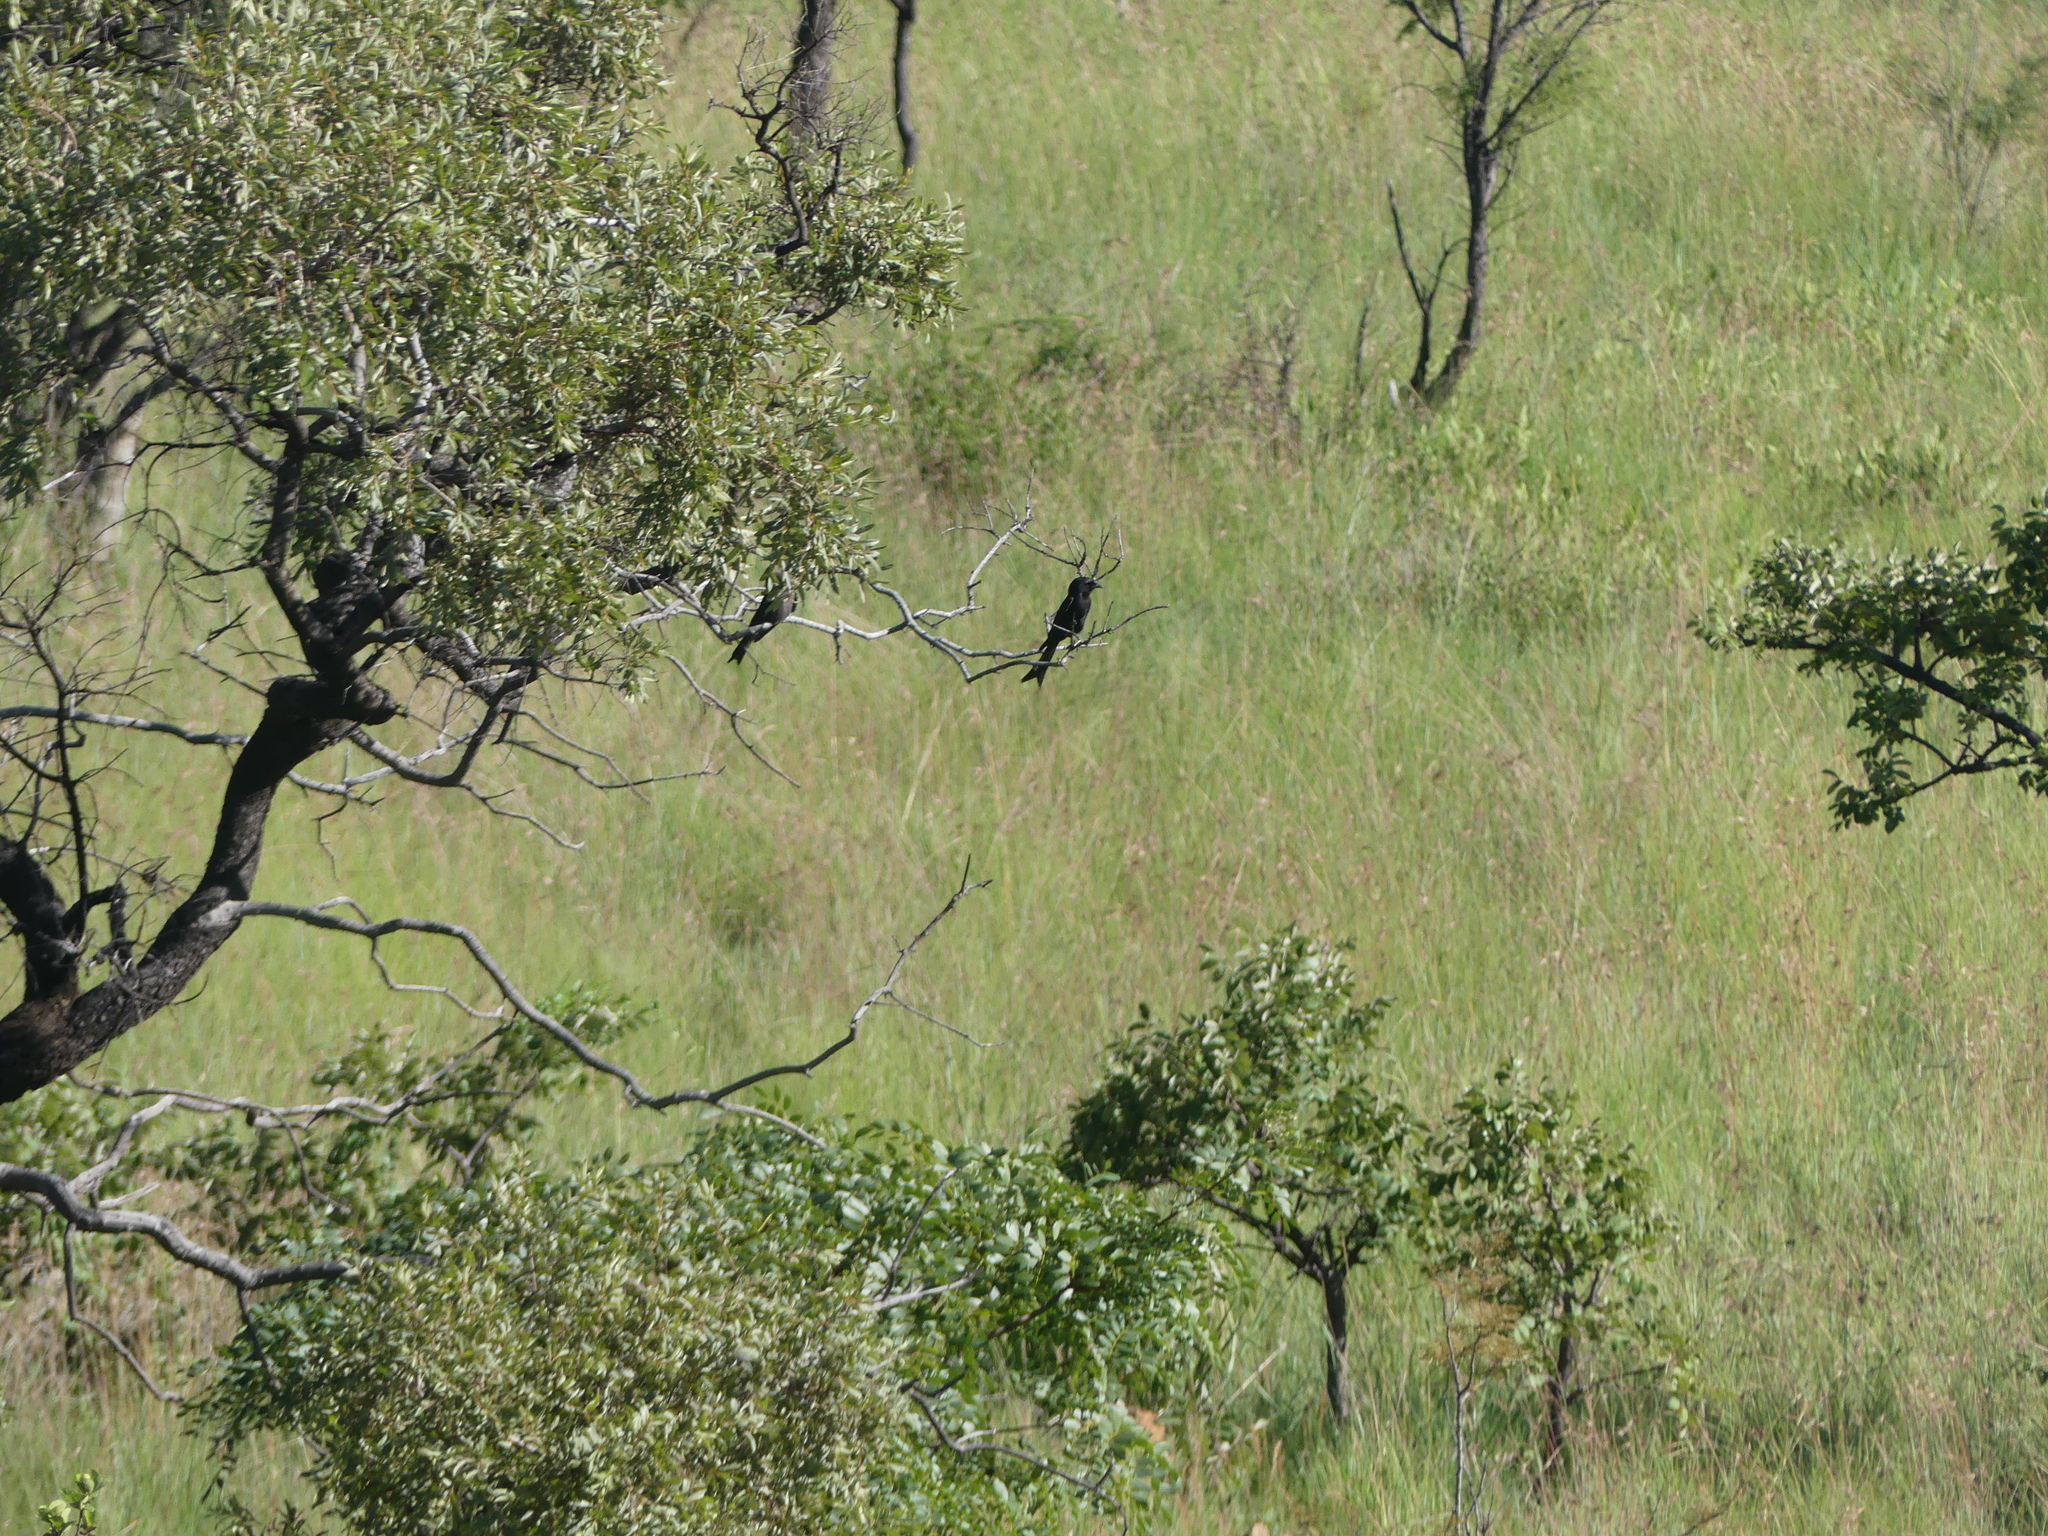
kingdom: Animalia
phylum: Chordata
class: Aves
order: Passeriformes
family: Dicruridae
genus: Dicrurus
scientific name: Dicrurus adsimilis
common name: Fork-tailed drongo
